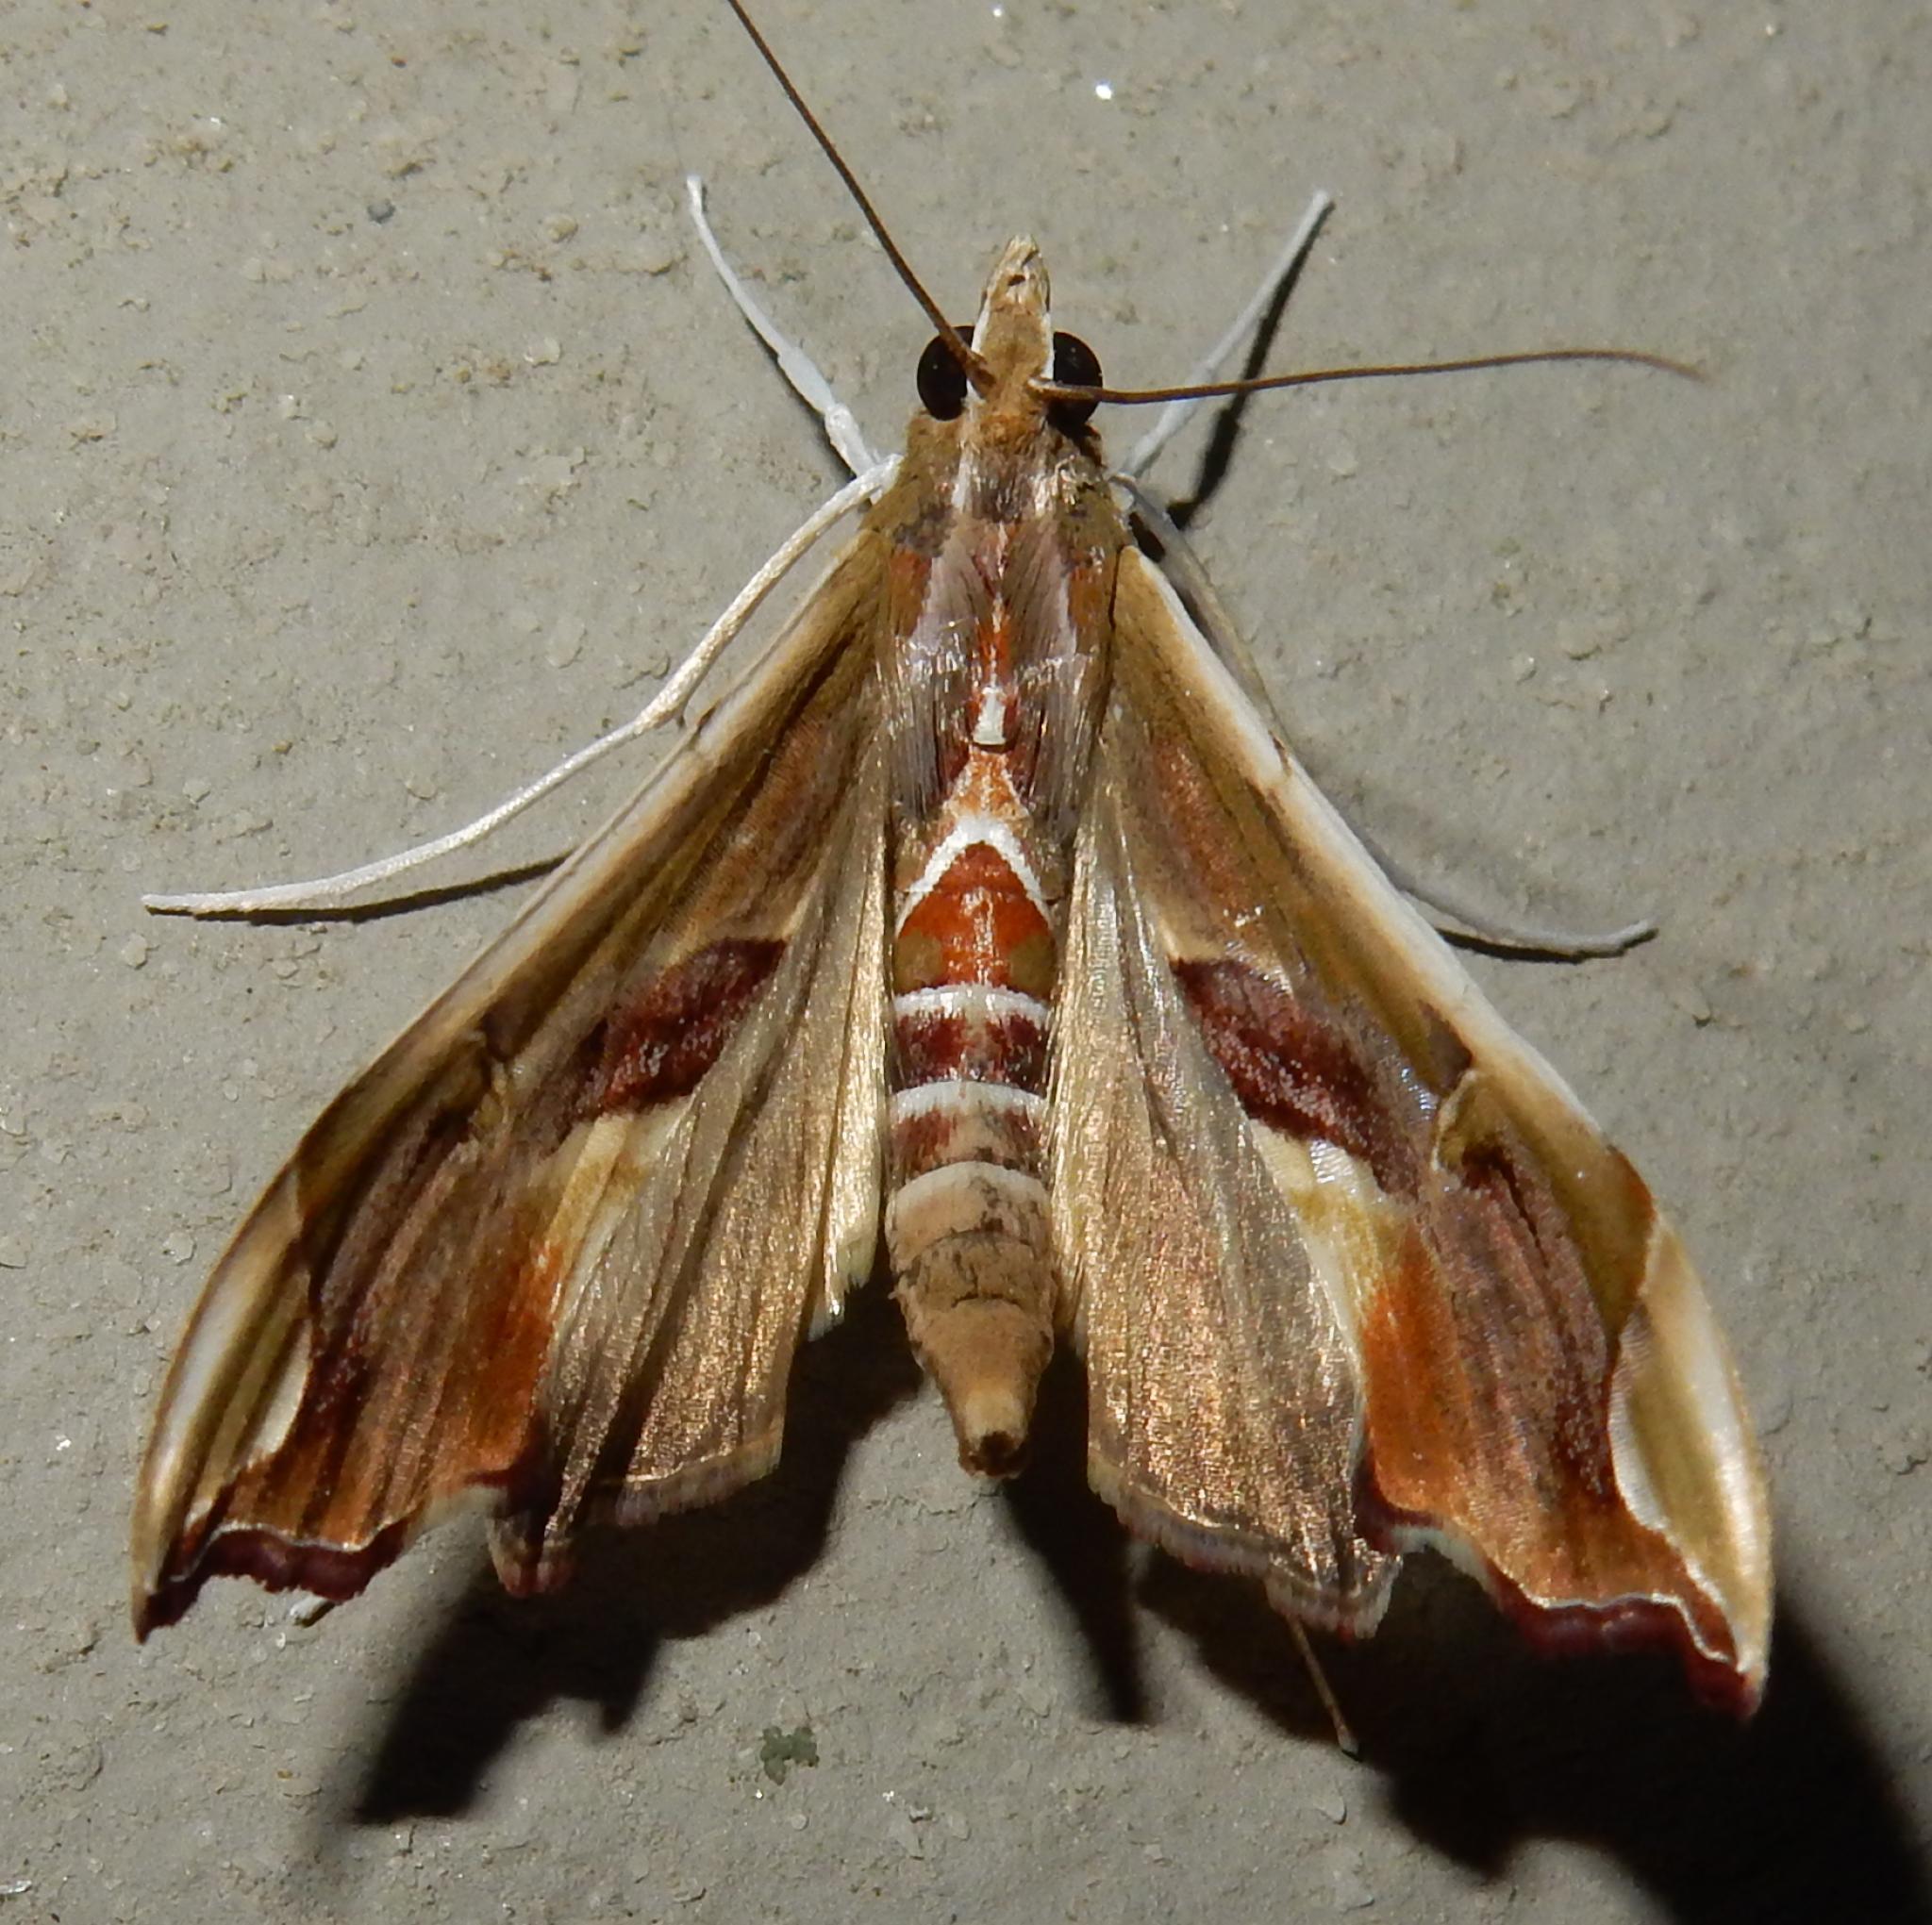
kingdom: Animalia
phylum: Arthropoda
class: Insecta
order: Lepidoptera
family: Crambidae
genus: Agathodes
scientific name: Agathodes musivalis
